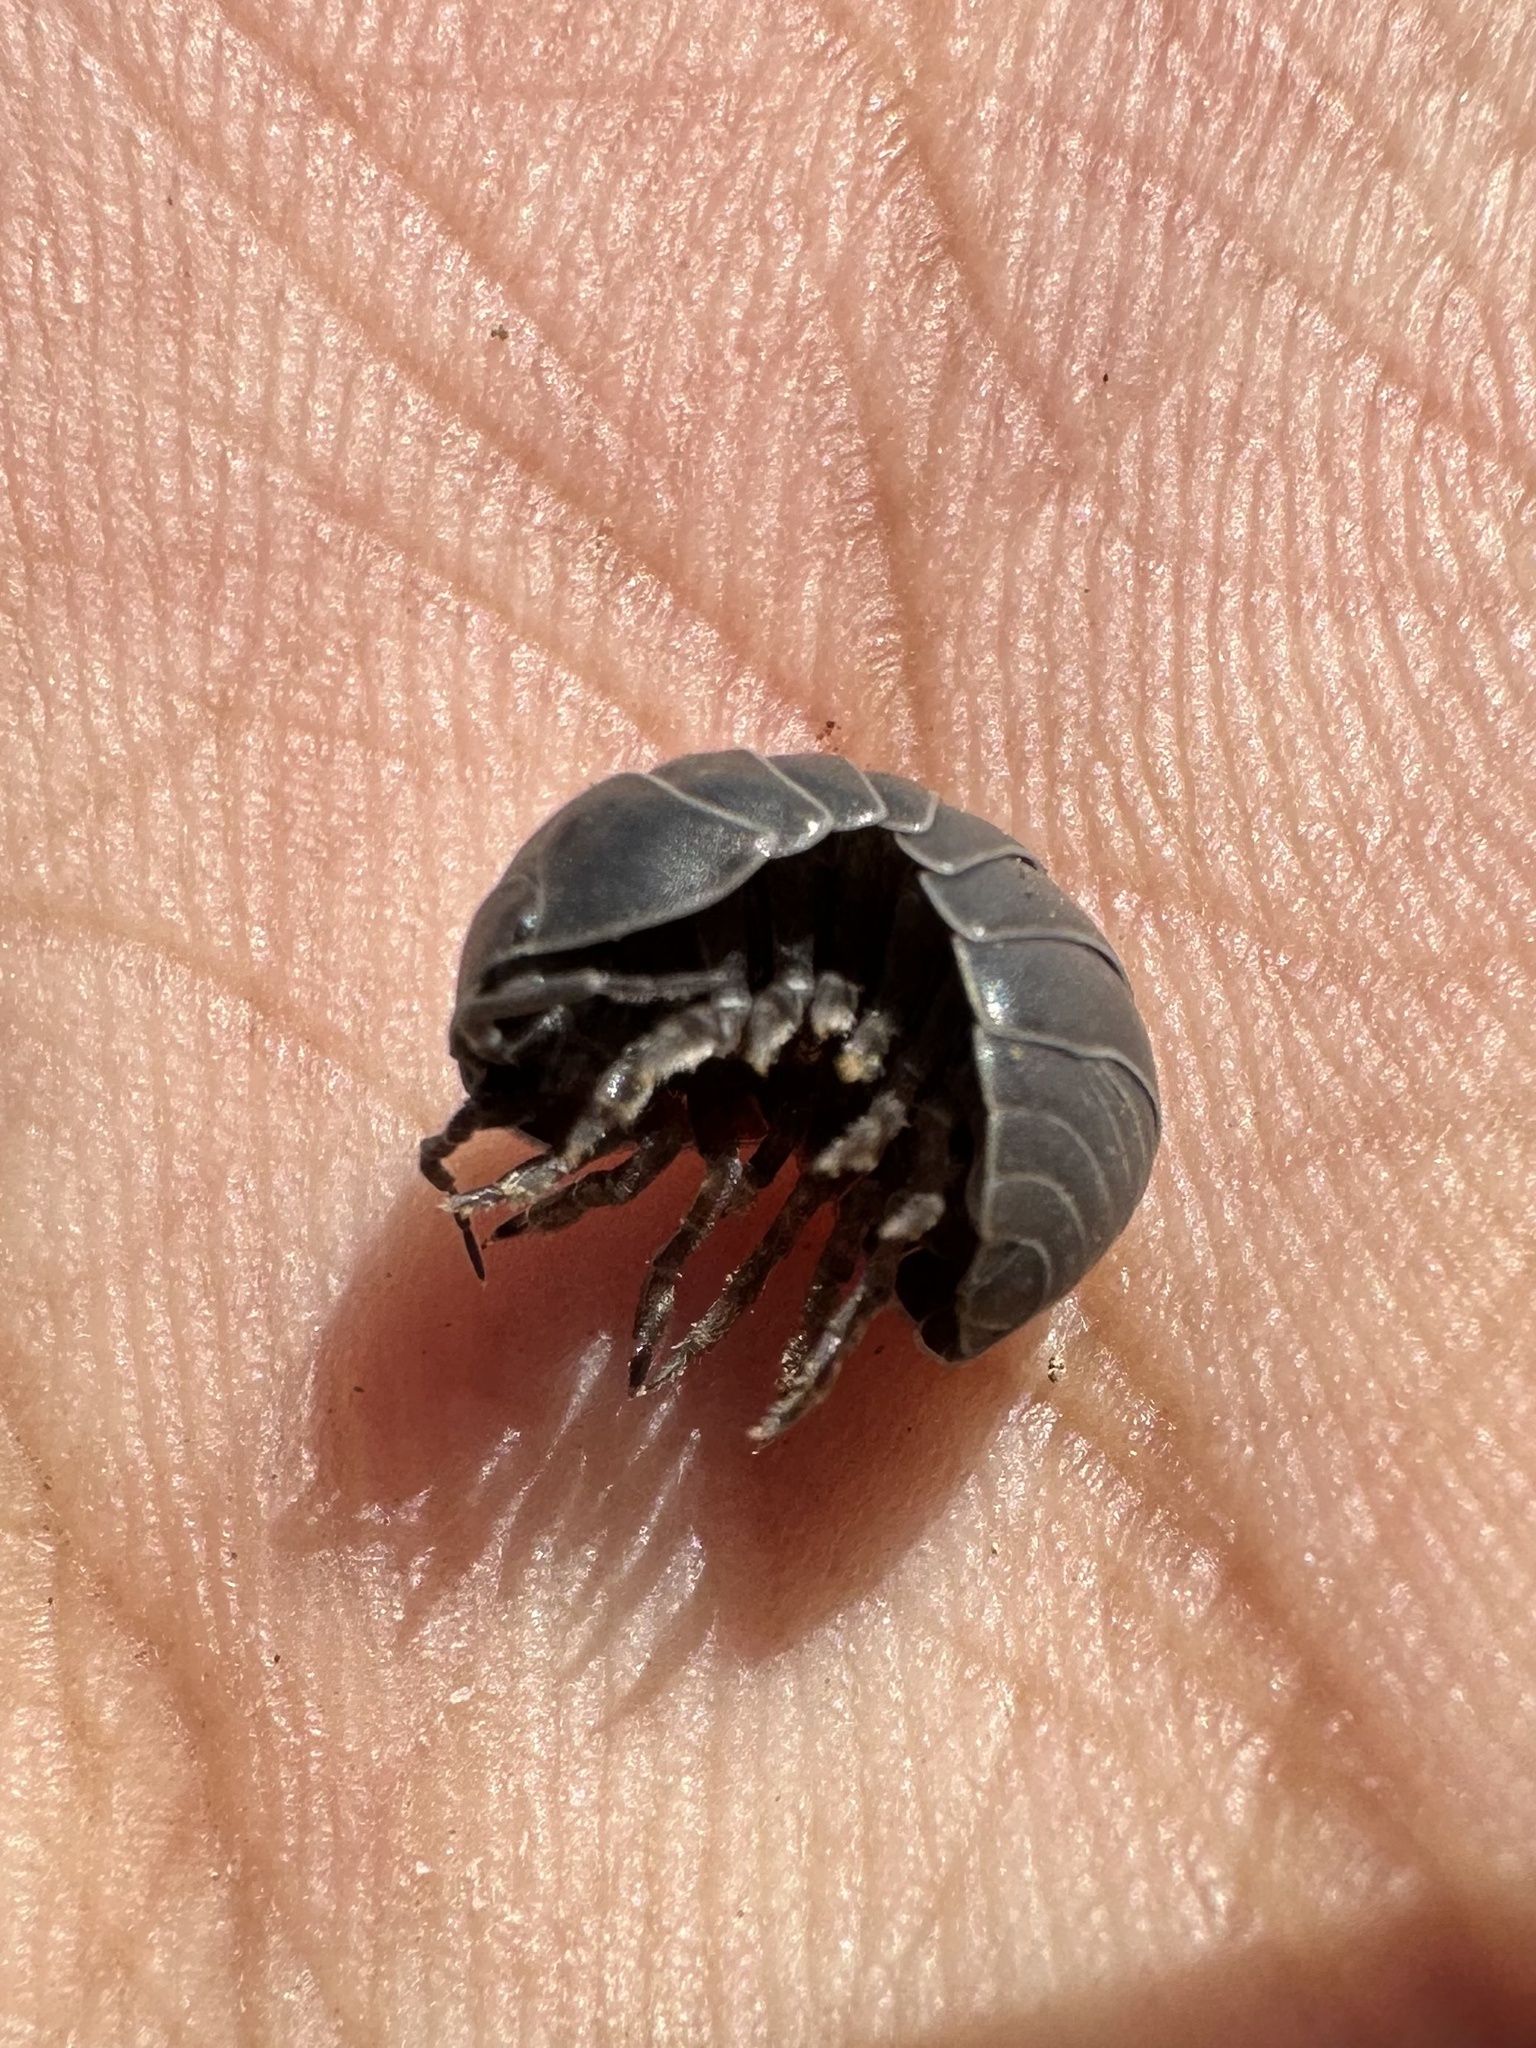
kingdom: Animalia
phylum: Arthropoda
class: Malacostraca
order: Isopoda
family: Armadillidiidae
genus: Armadillidium
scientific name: Armadillidium vulgare
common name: Common pill woodlouse
